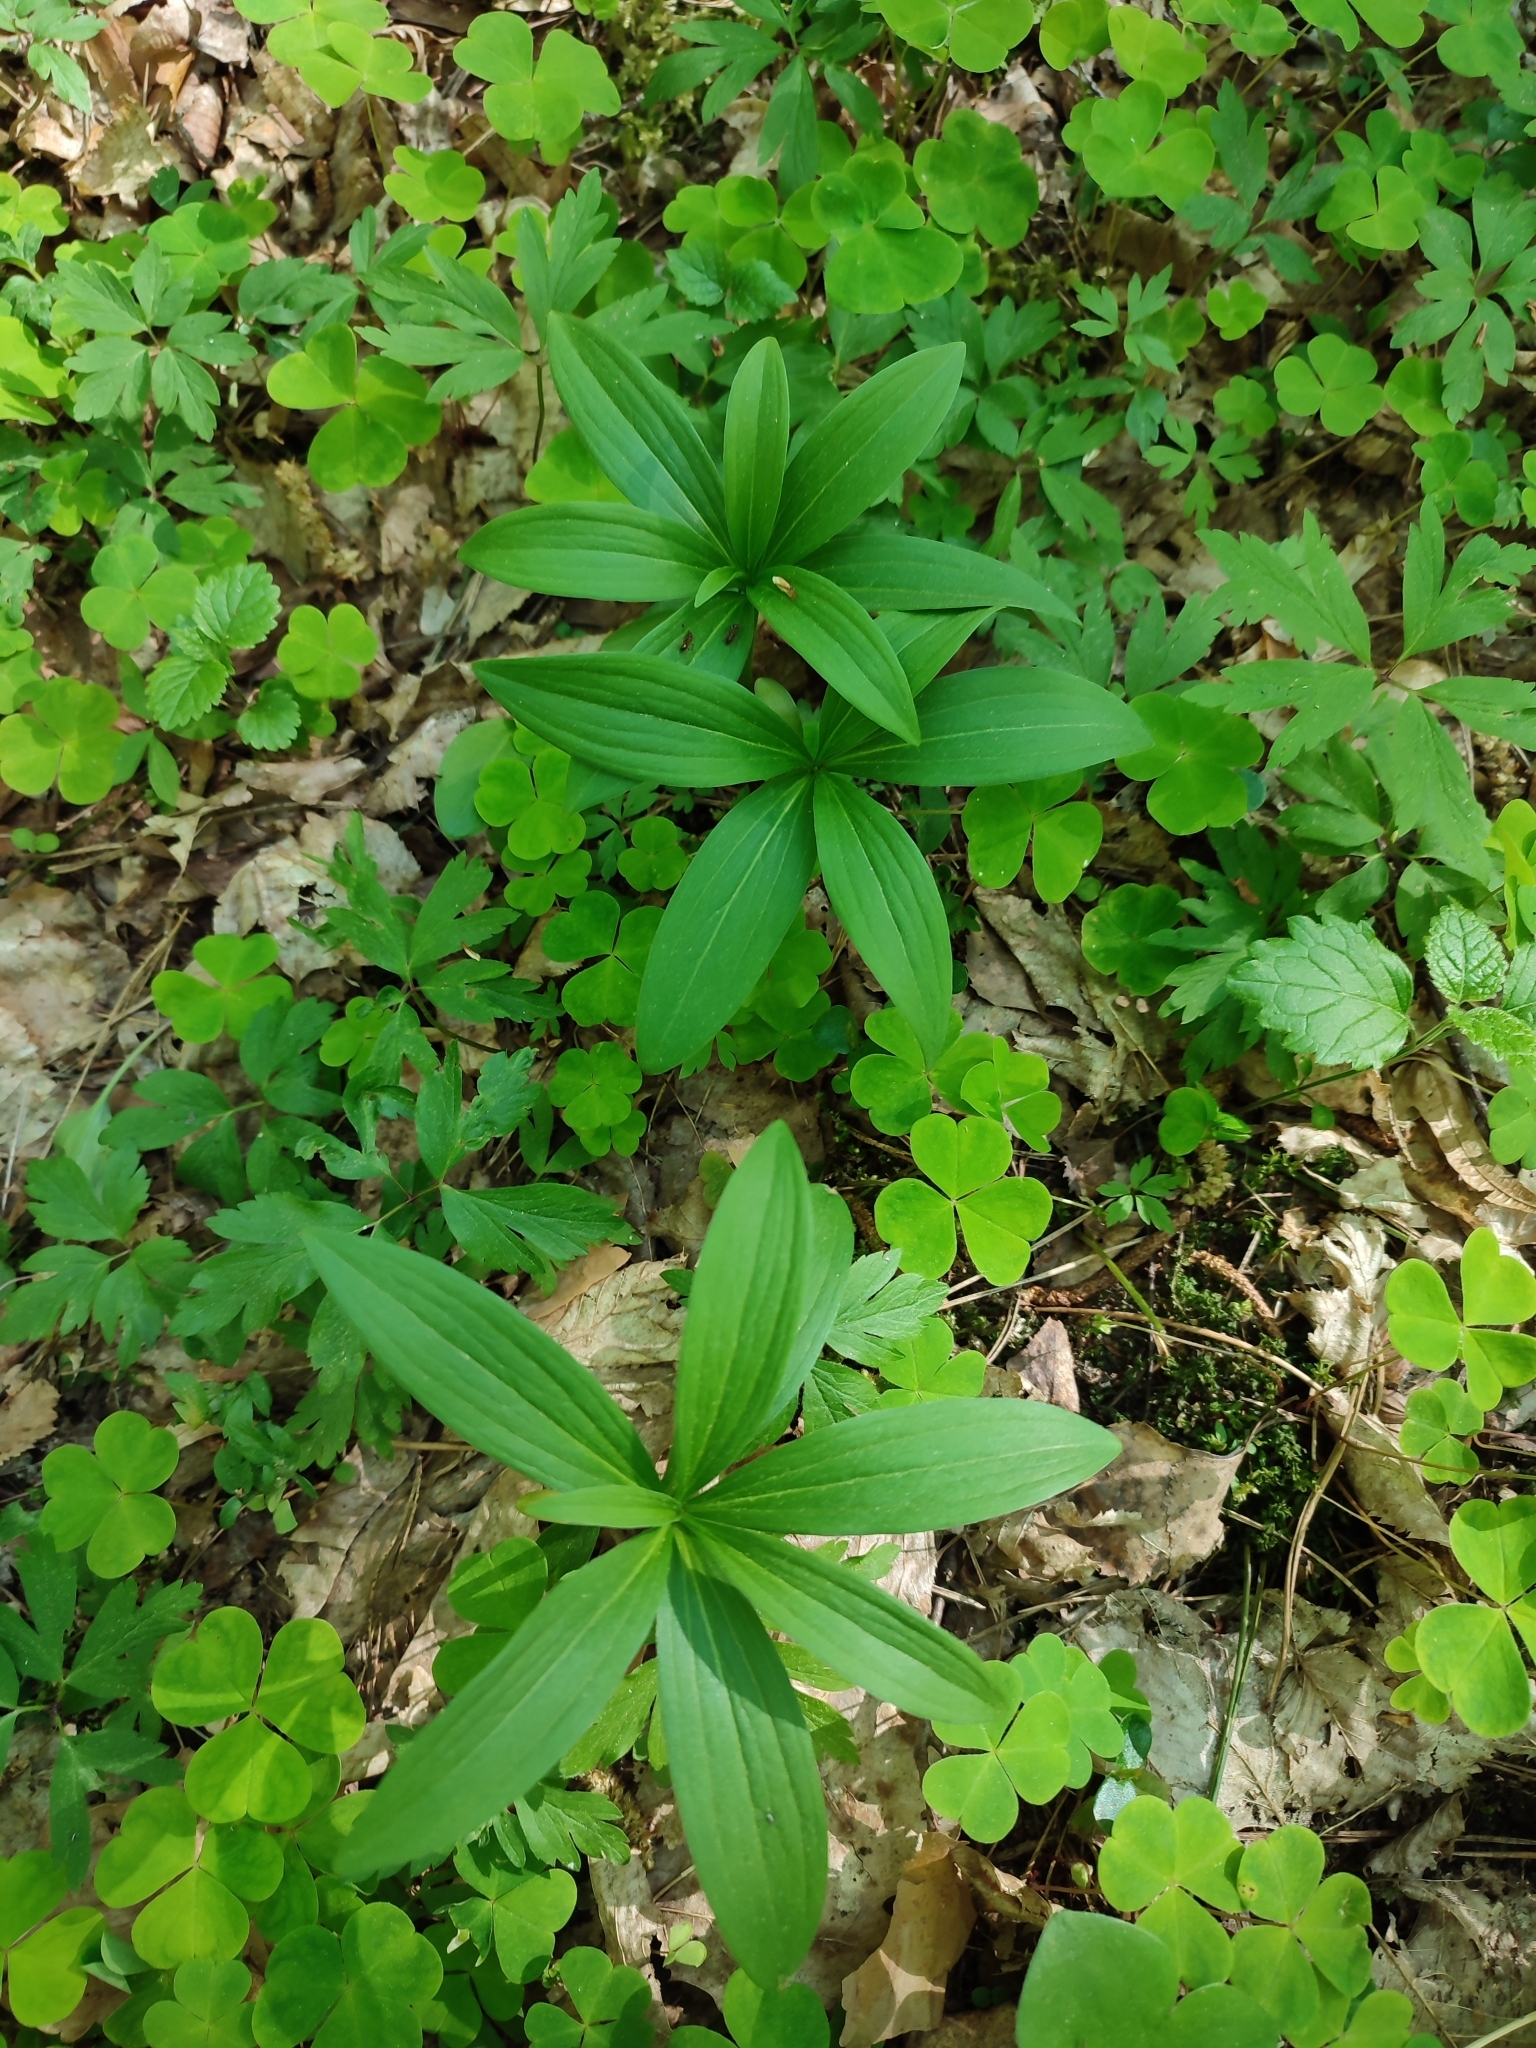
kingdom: Plantae
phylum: Tracheophyta
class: Liliopsida
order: Liliales
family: Liliaceae
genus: Lilium
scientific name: Lilium martagon
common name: Martagon lily
